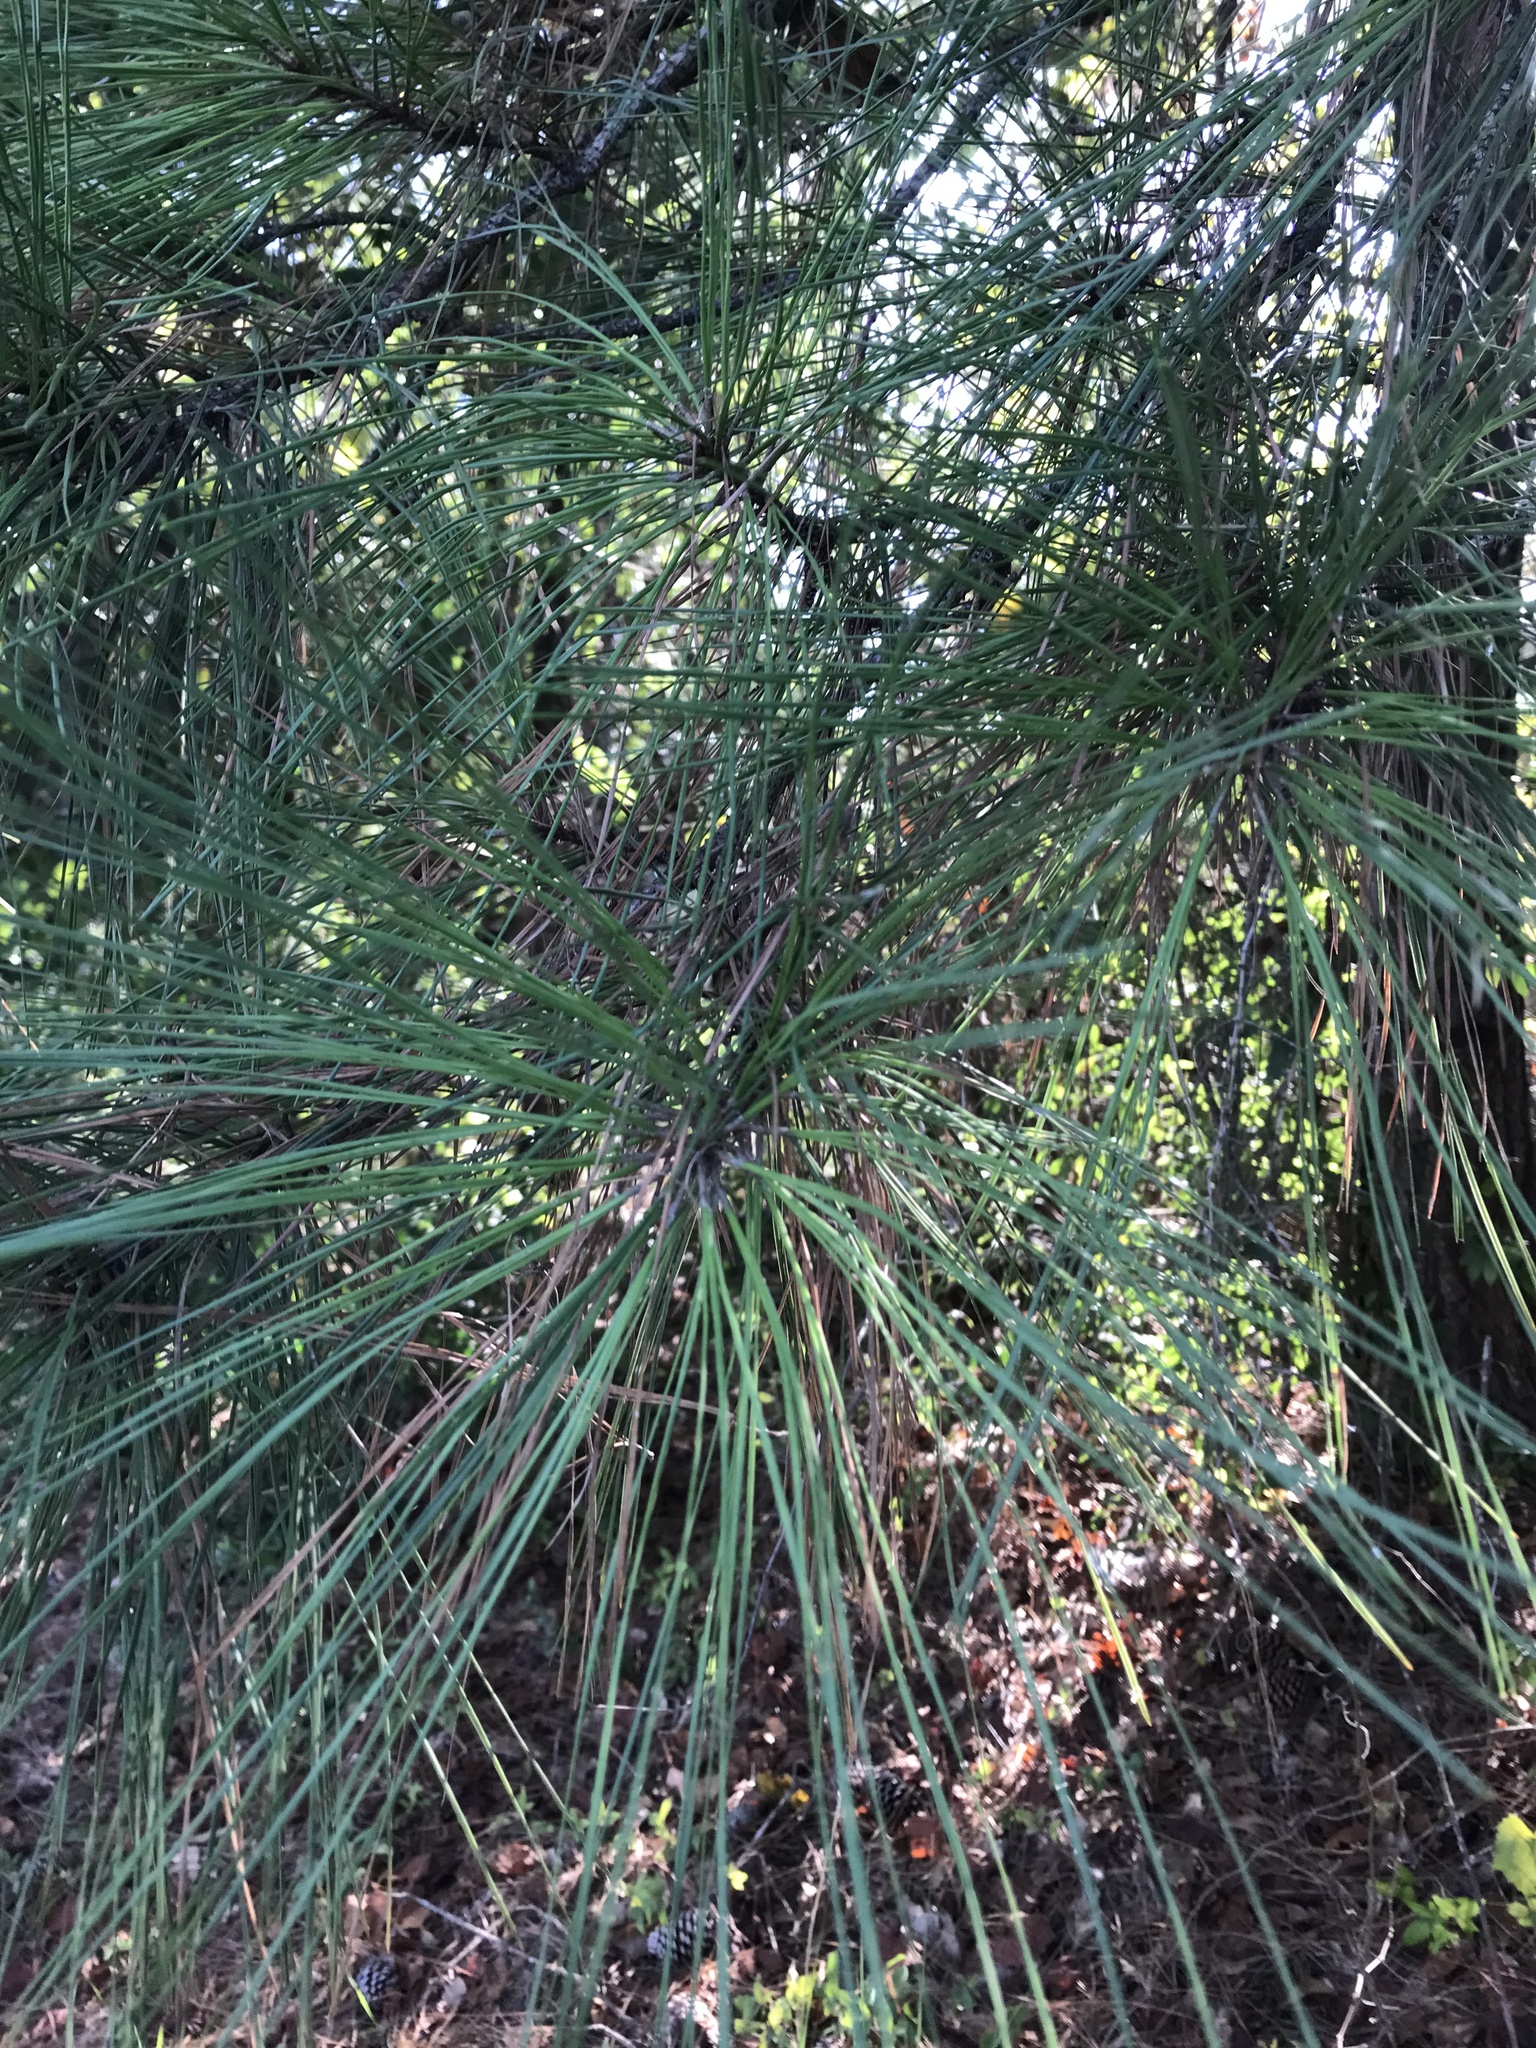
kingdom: Plantae
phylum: Tracheophyta
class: Pinopsida
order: Pinales
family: Pinaceae
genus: Pinus
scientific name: Pinus taeda
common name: Loblolly pine
